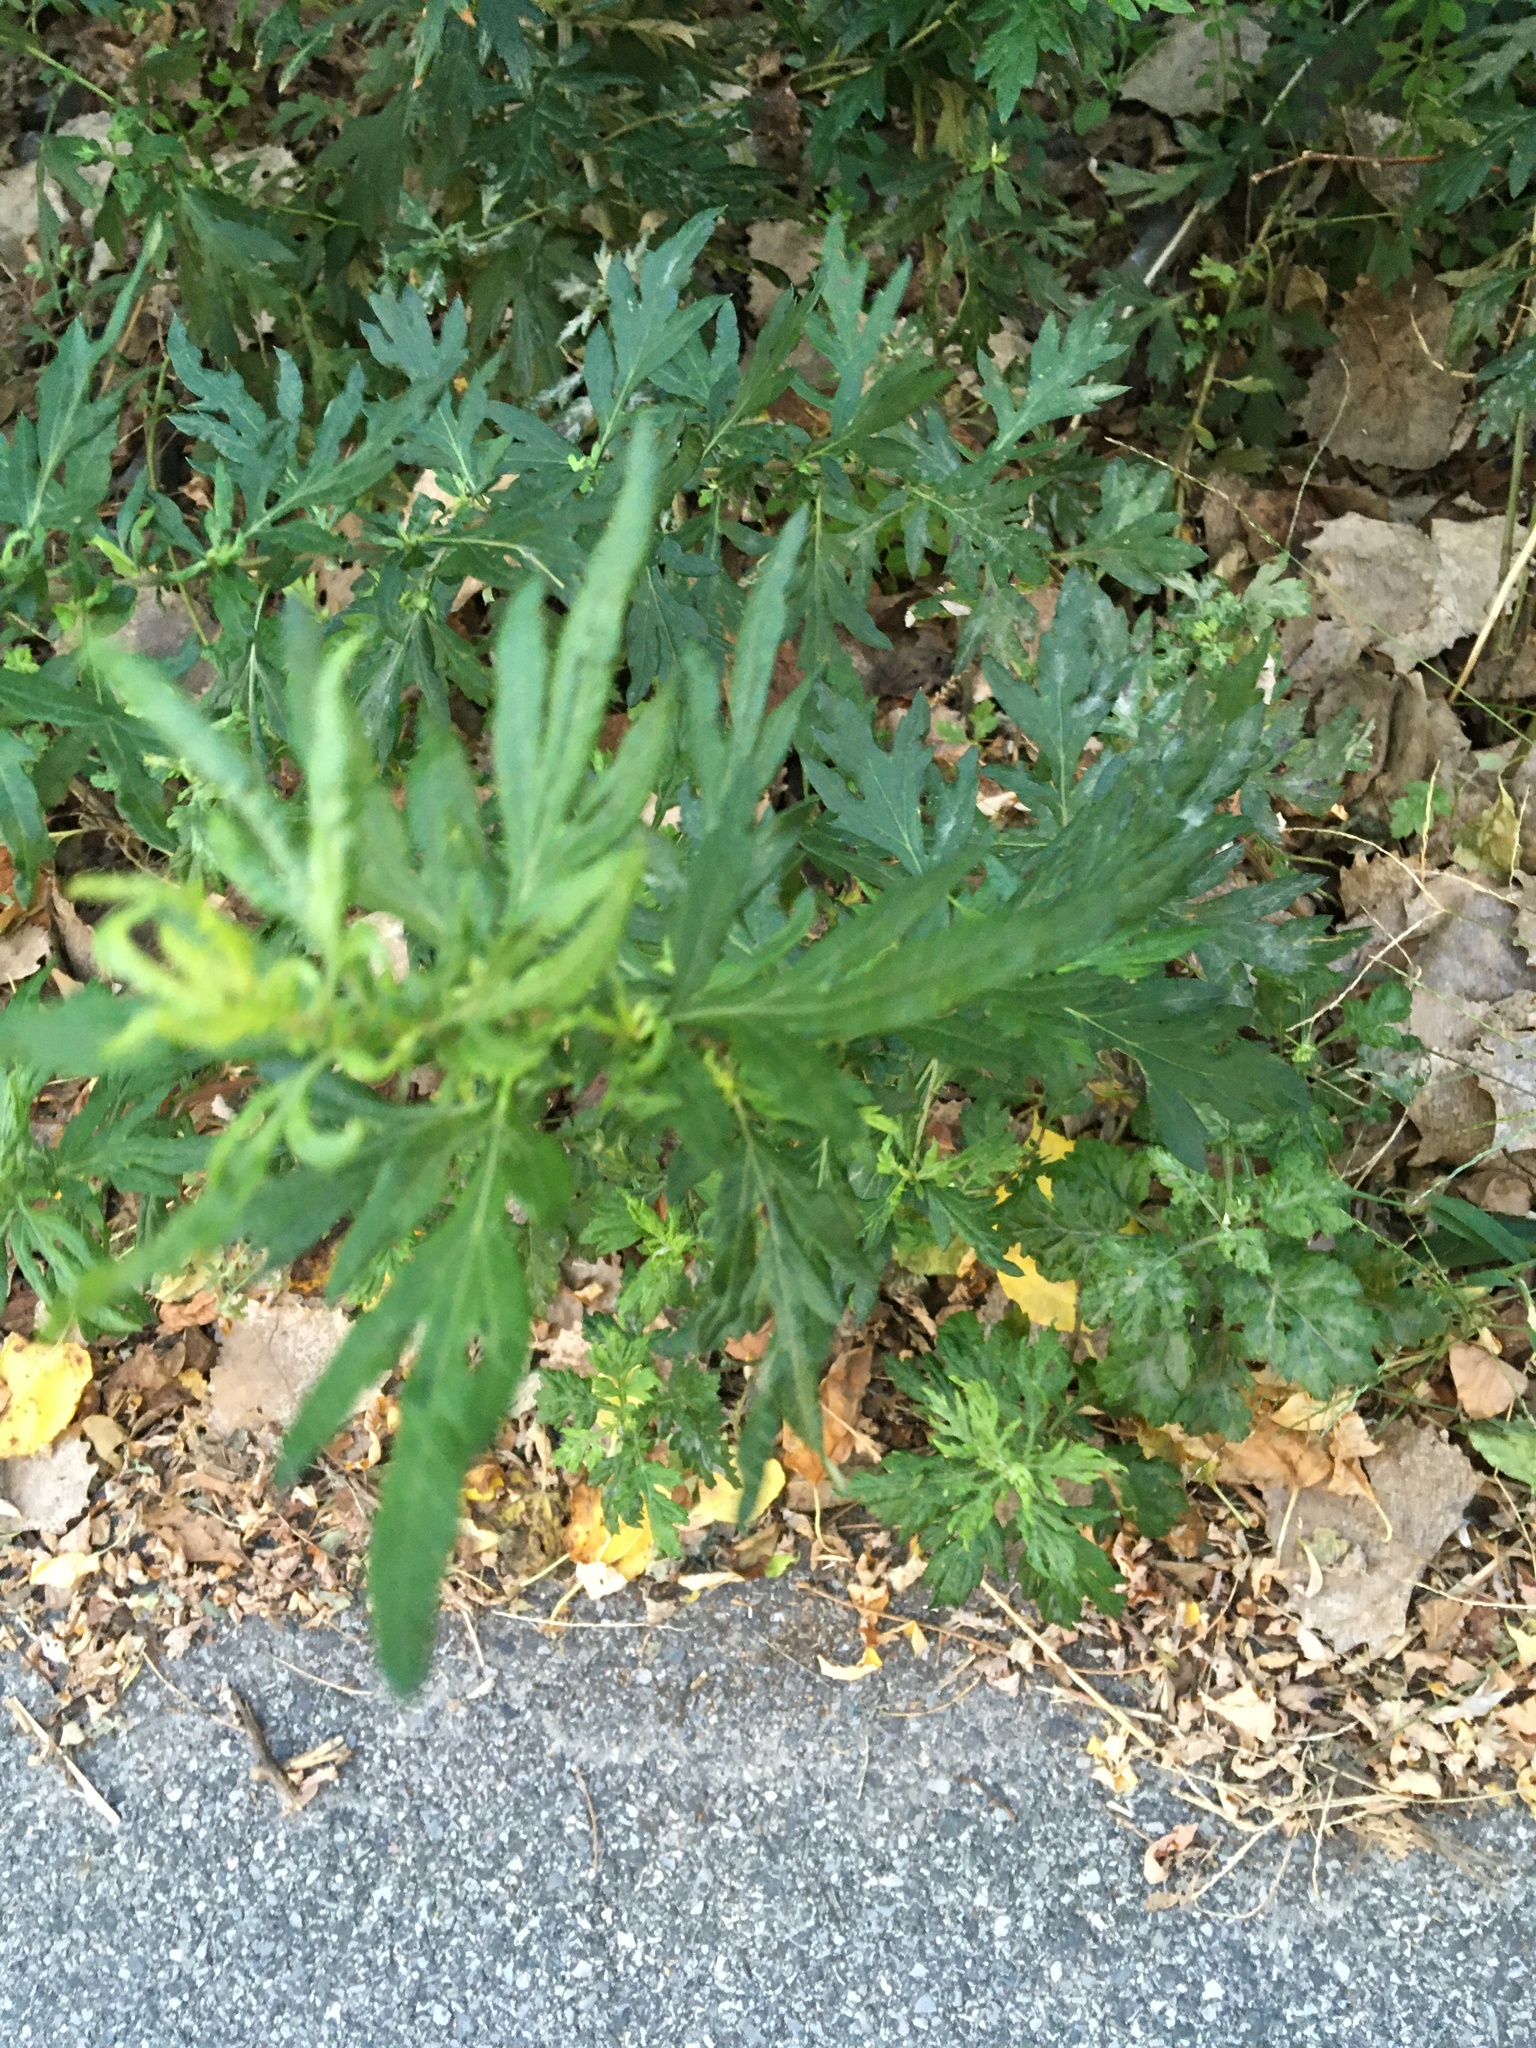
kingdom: Plantae
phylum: Tracheophyta
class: Magnoliopsida
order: Asterales
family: Asteraceae
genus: Artemisia
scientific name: Artemisia vulgaris
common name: Mugwort
